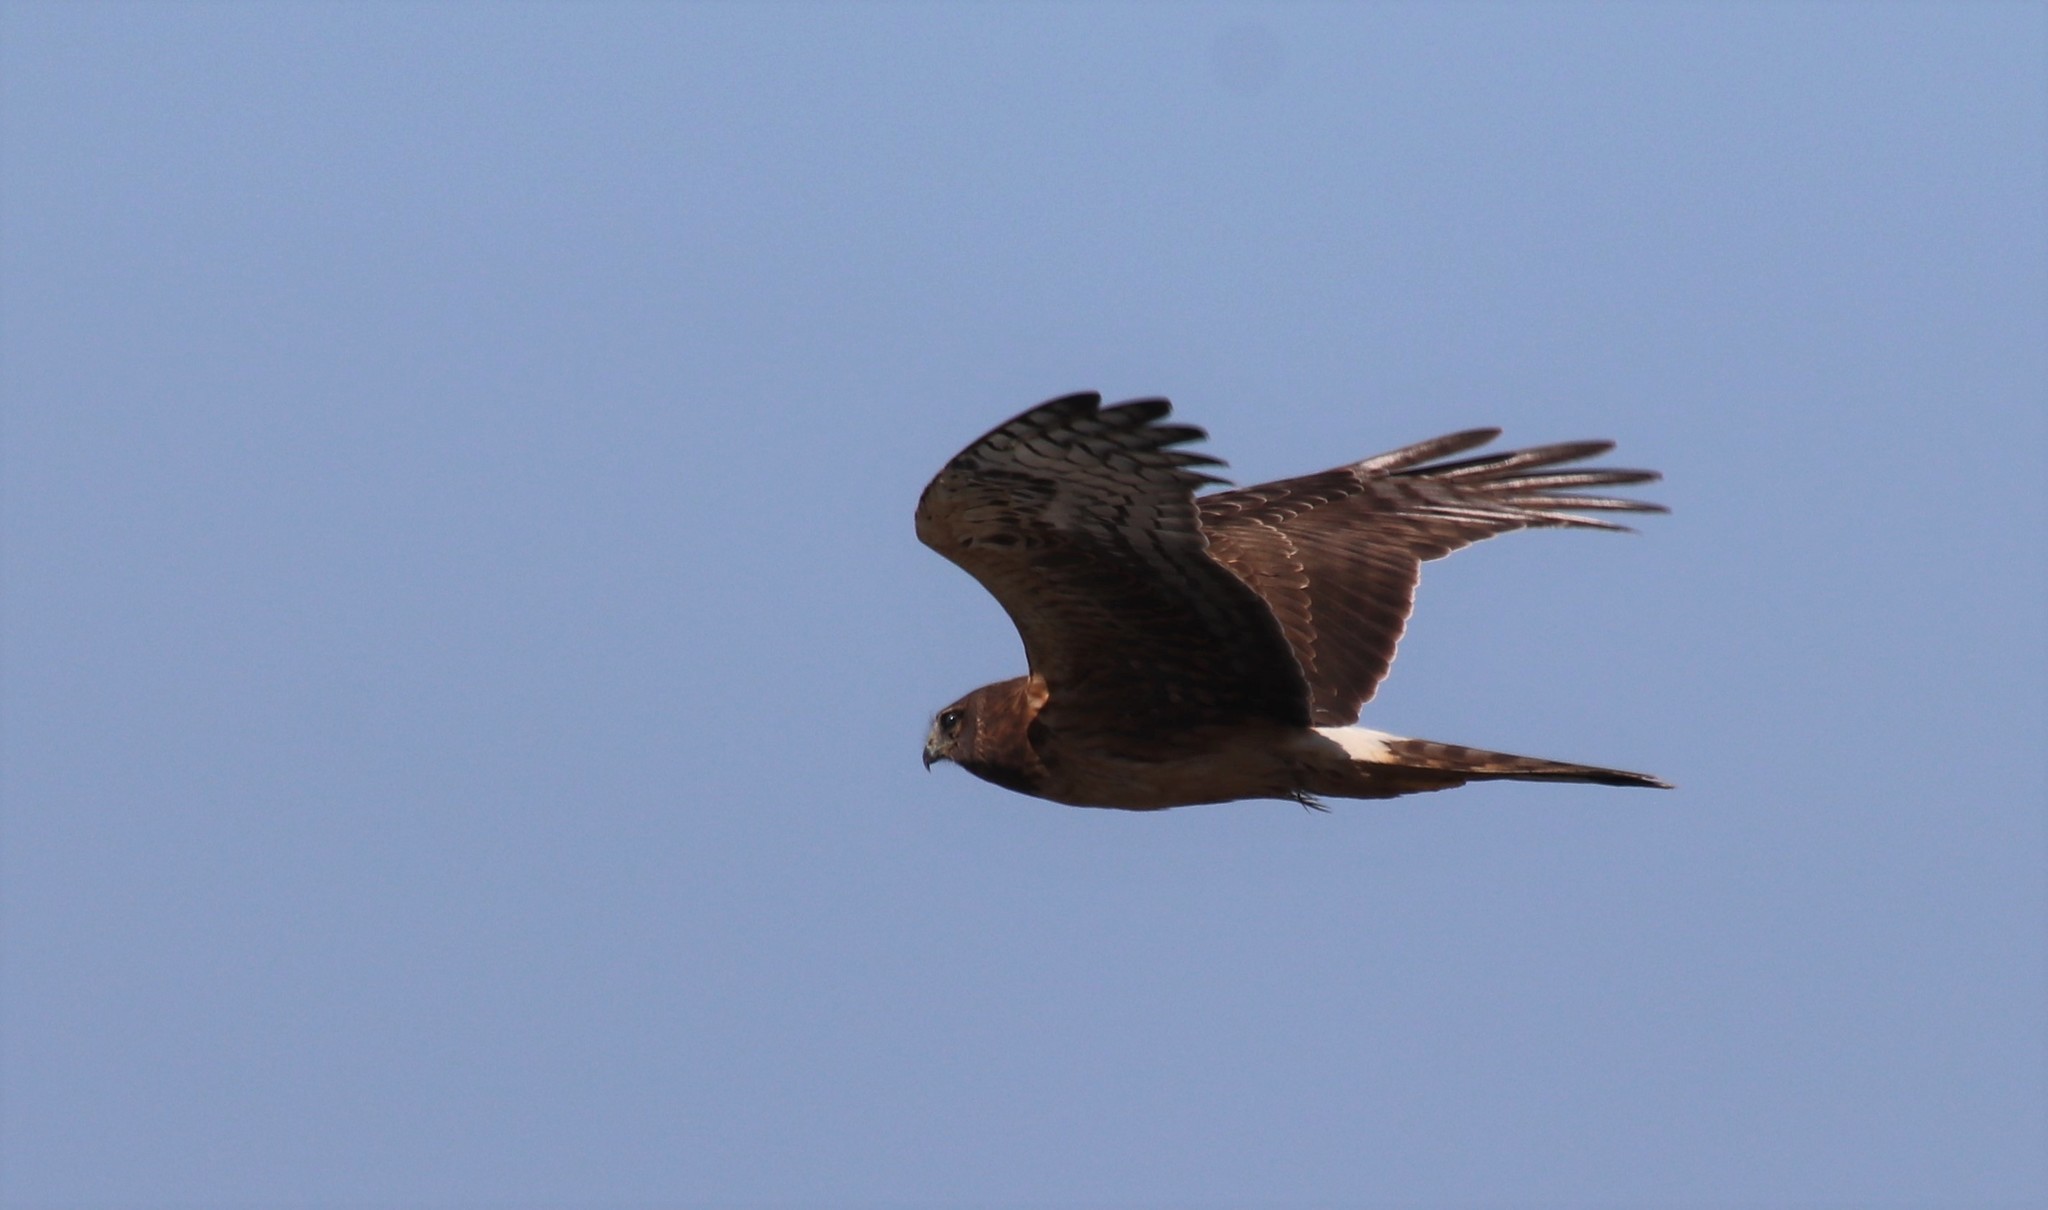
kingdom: Animalia
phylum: Chordata
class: Aves
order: Accipitriformes
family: Accipitridae
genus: Circus
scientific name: Circus cyaneus
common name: Hen harrier
